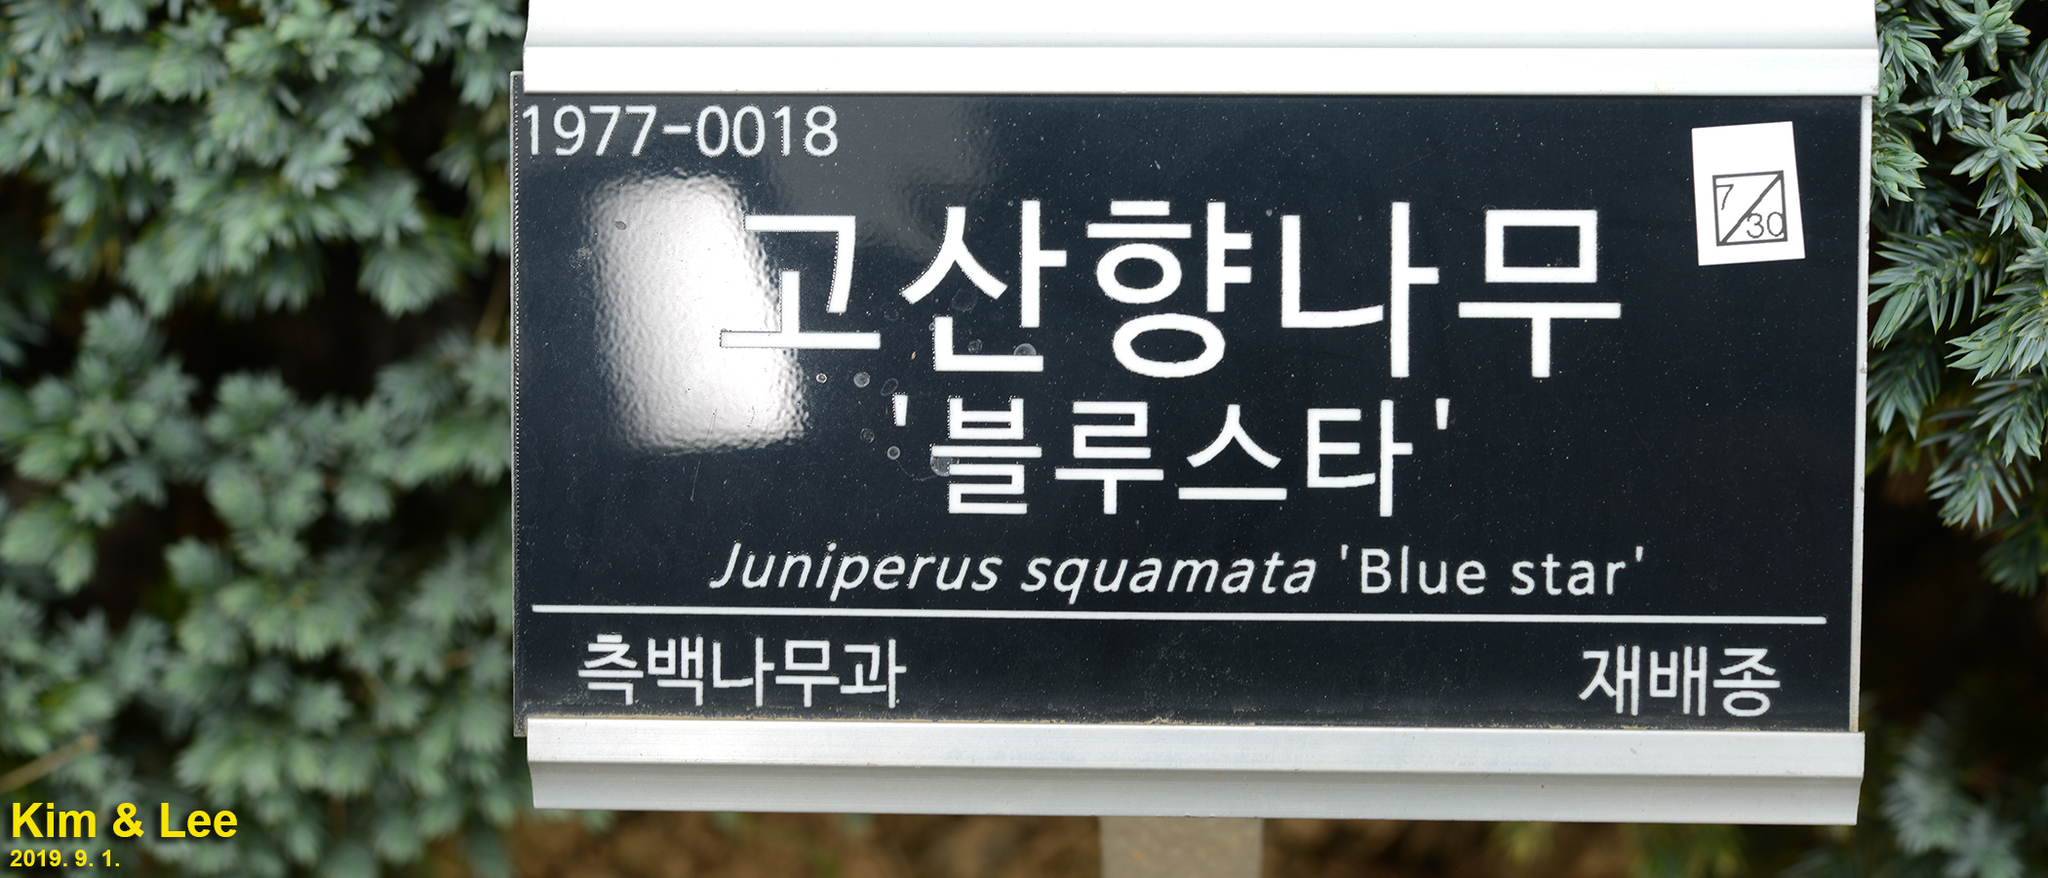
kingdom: Plantae
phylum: Tracheophyta
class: Pinopsida
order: Pinales
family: Cupressaceae
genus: Juniperus
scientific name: Juniperus squamata
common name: Flaky juniper
